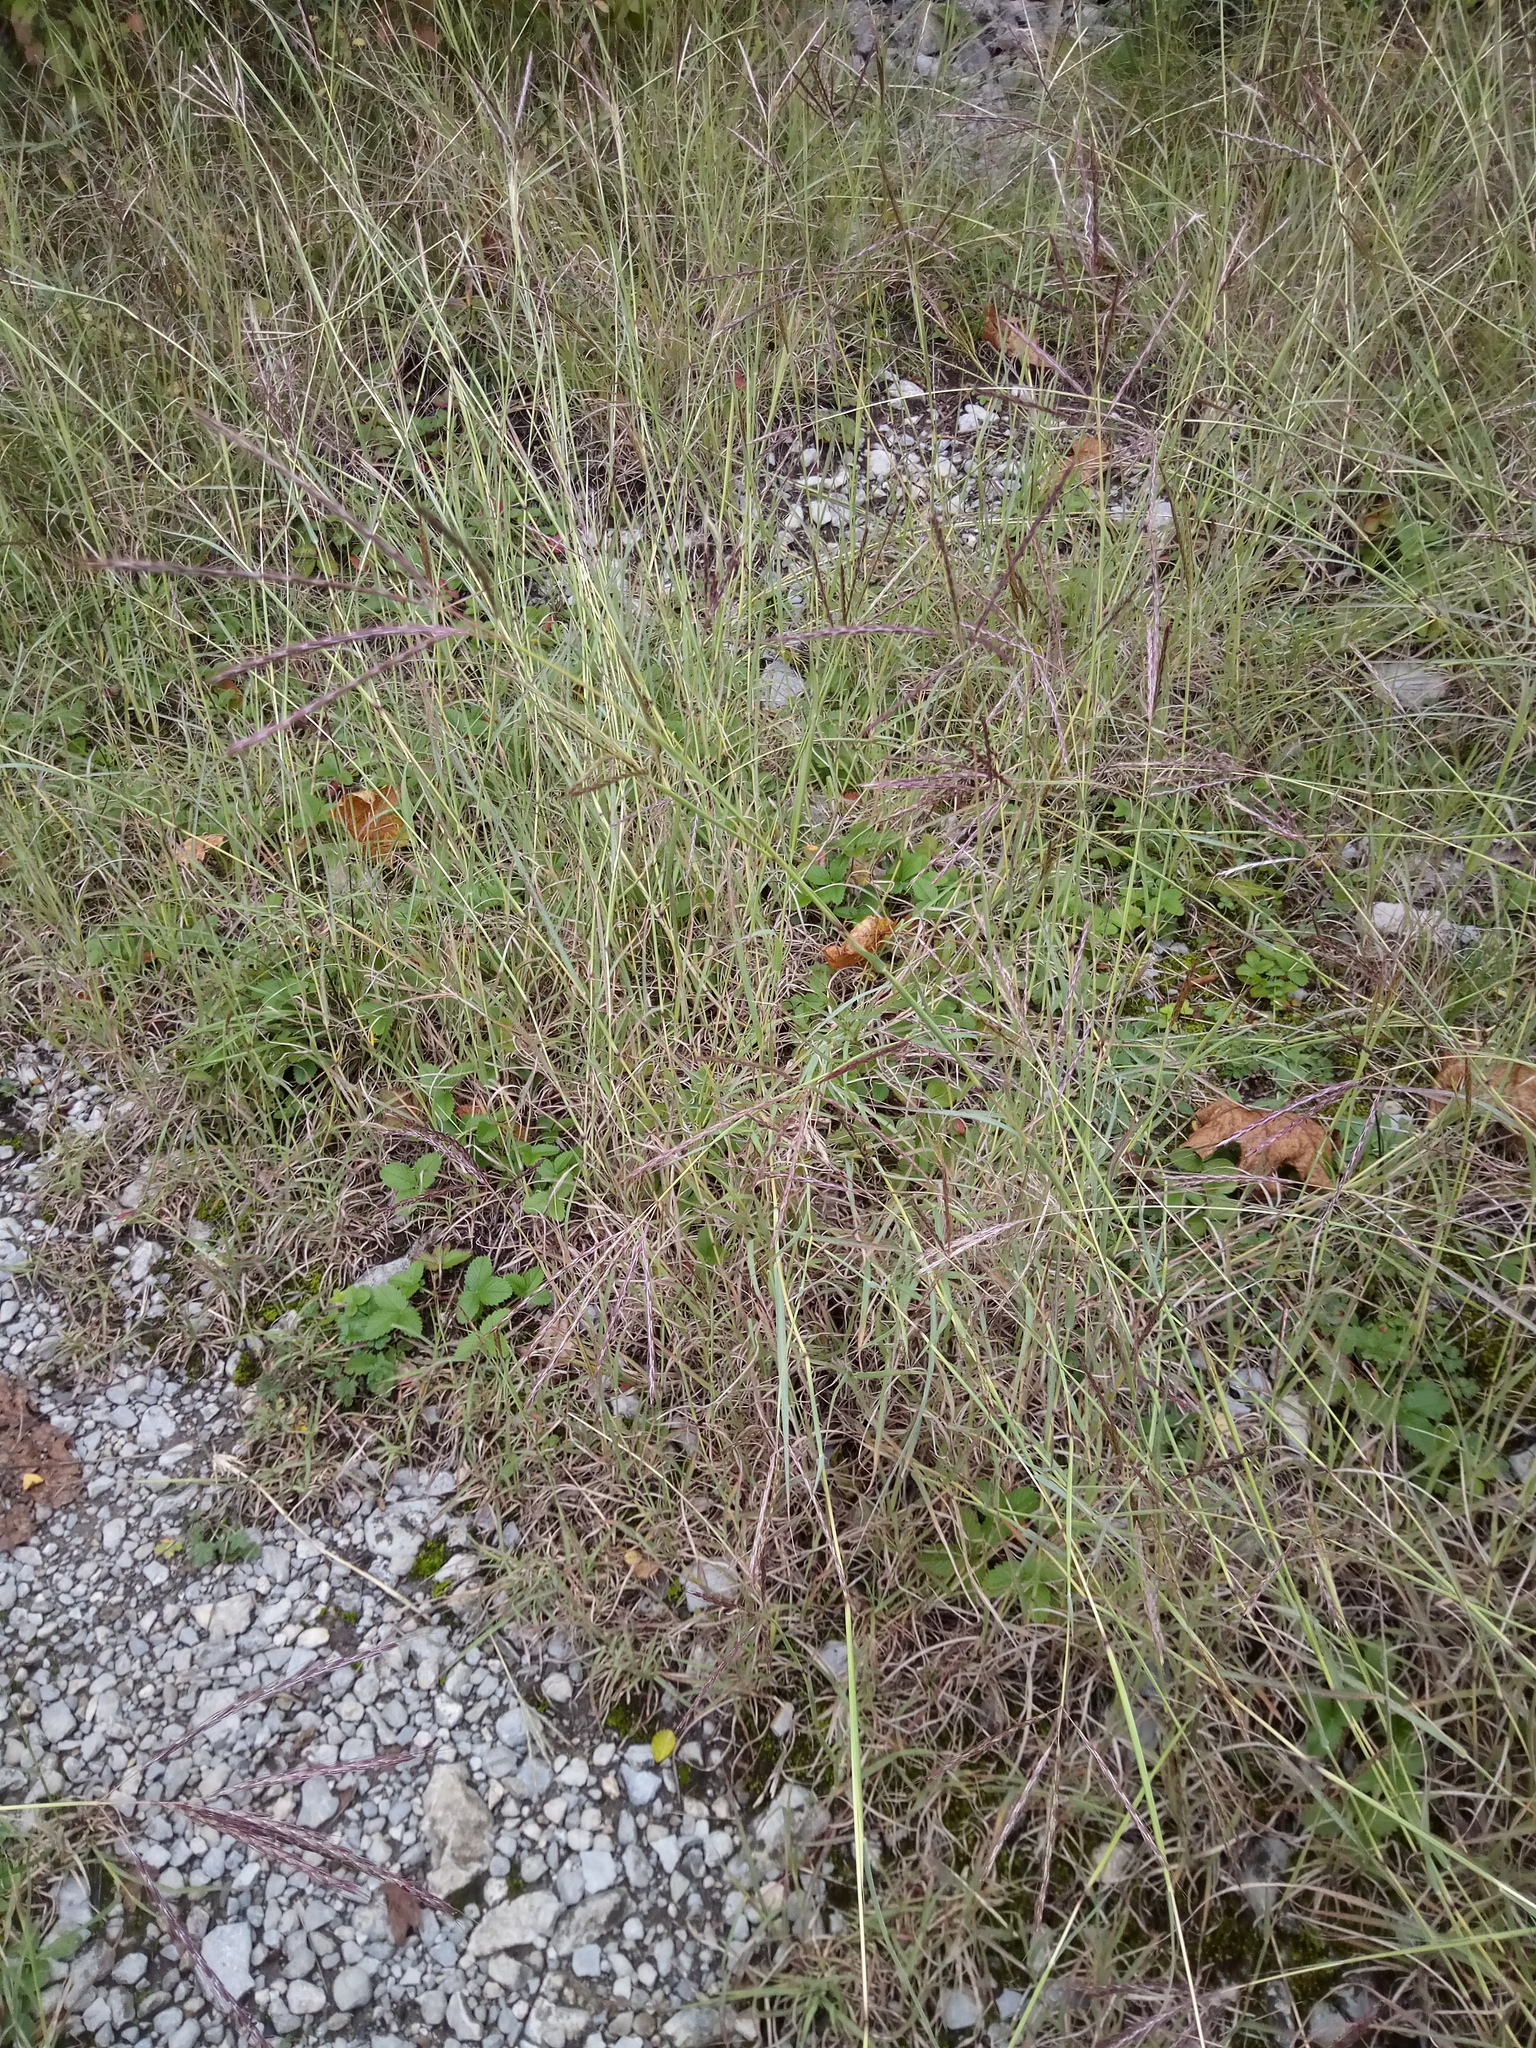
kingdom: Plantae
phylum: Tracheophyta
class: Liliopsida
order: Poales
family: Poaceae
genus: Bothriochloa
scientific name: Bothriochloa ischaemum
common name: Yellow bluestem
